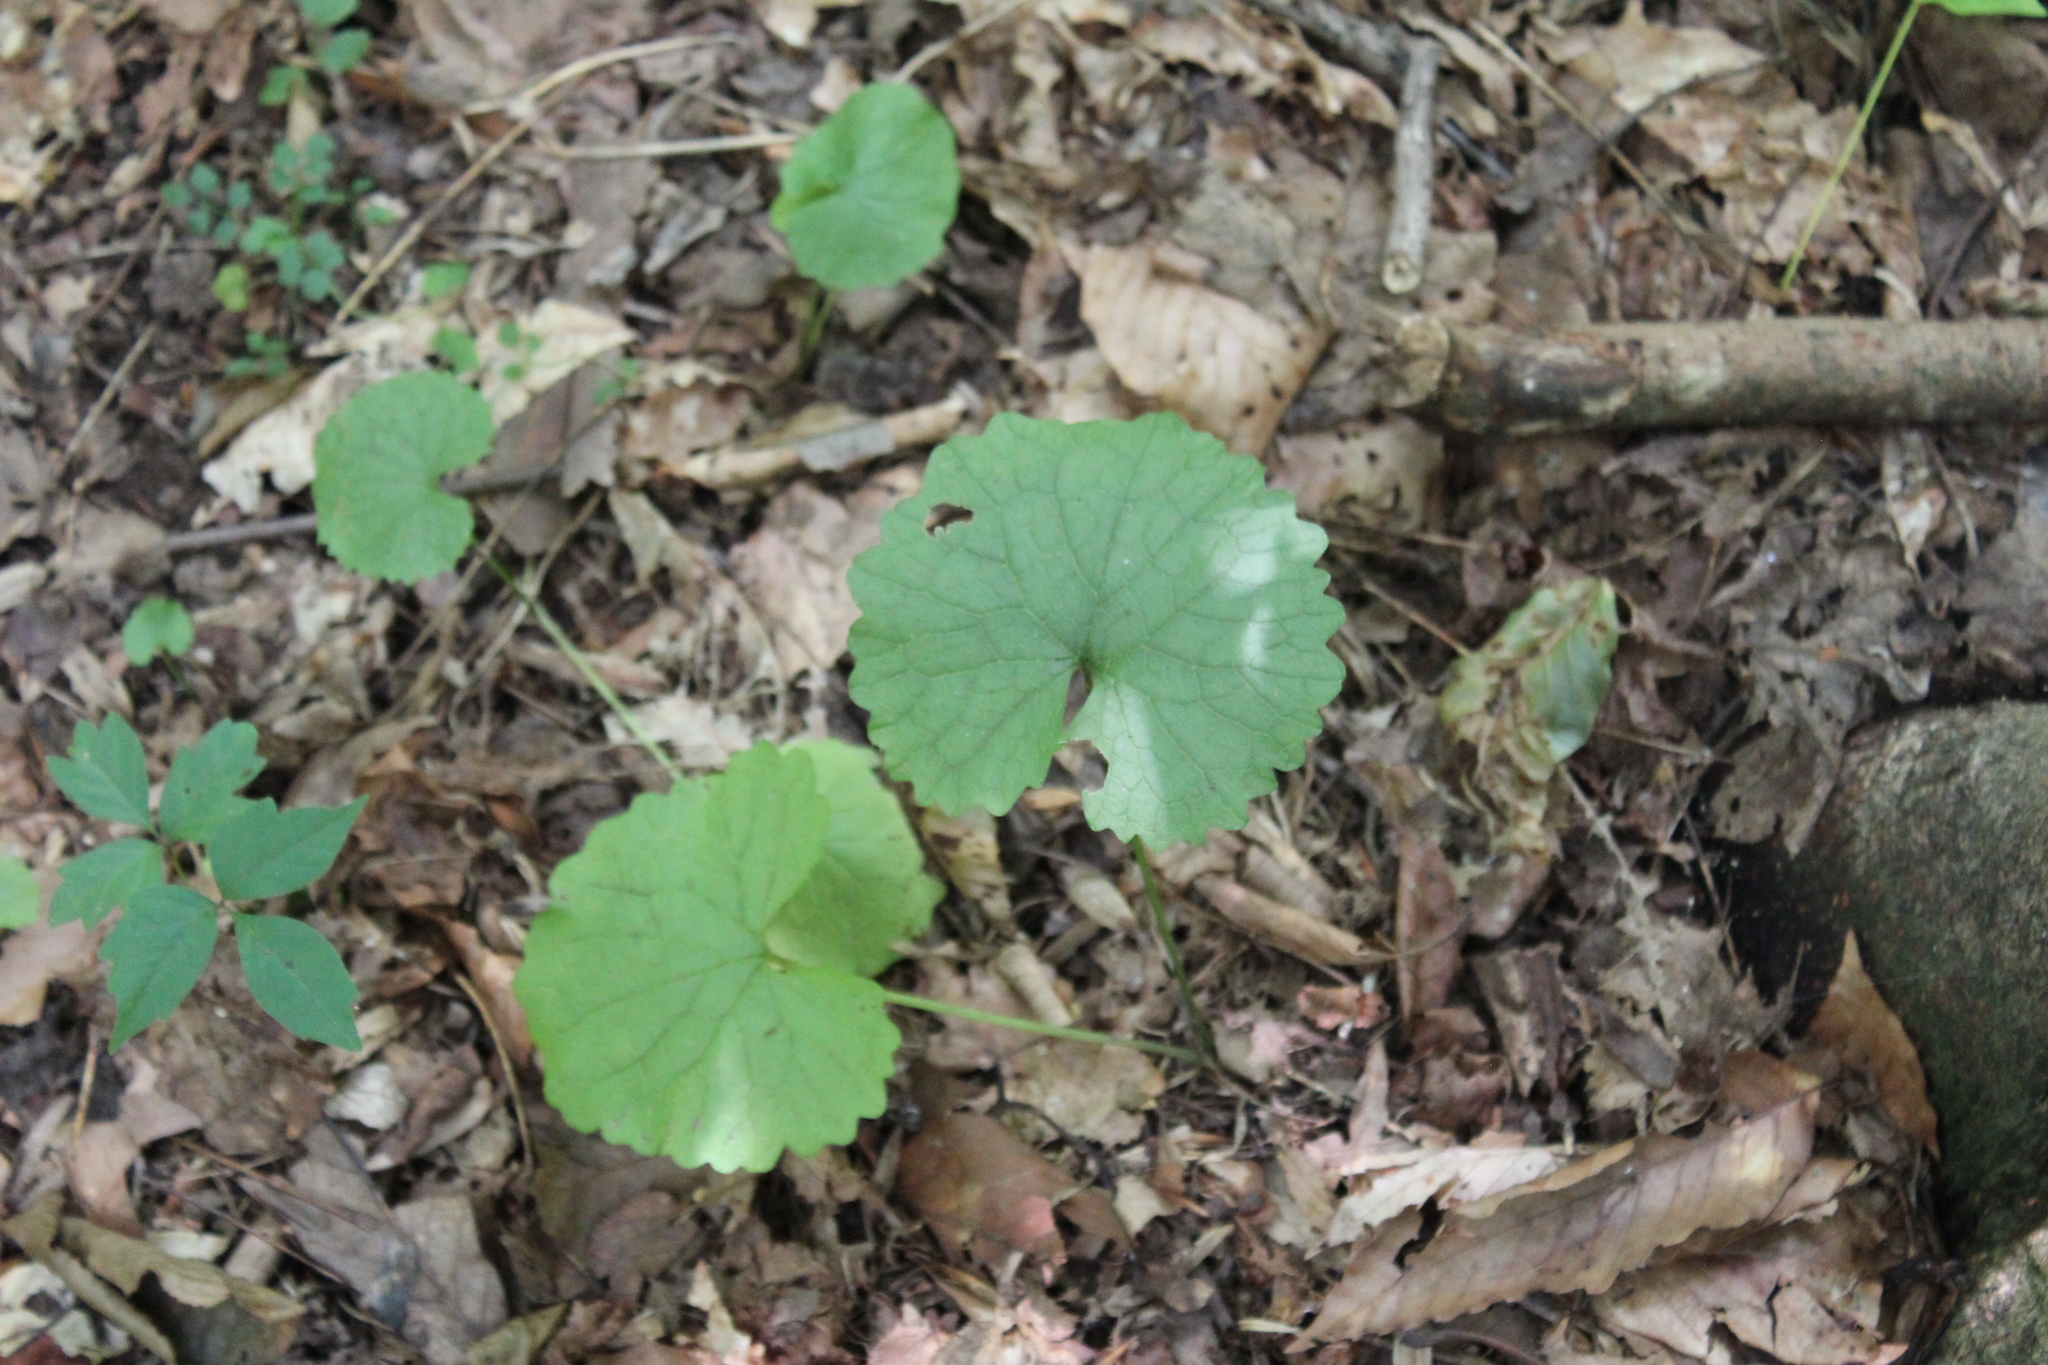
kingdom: Plantae
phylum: Tracheophyta
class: Magnoliopsida
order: Brassicales
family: Brassicaceae
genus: Alliaria
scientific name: Alliaria petiolata
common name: Garlic mustard
